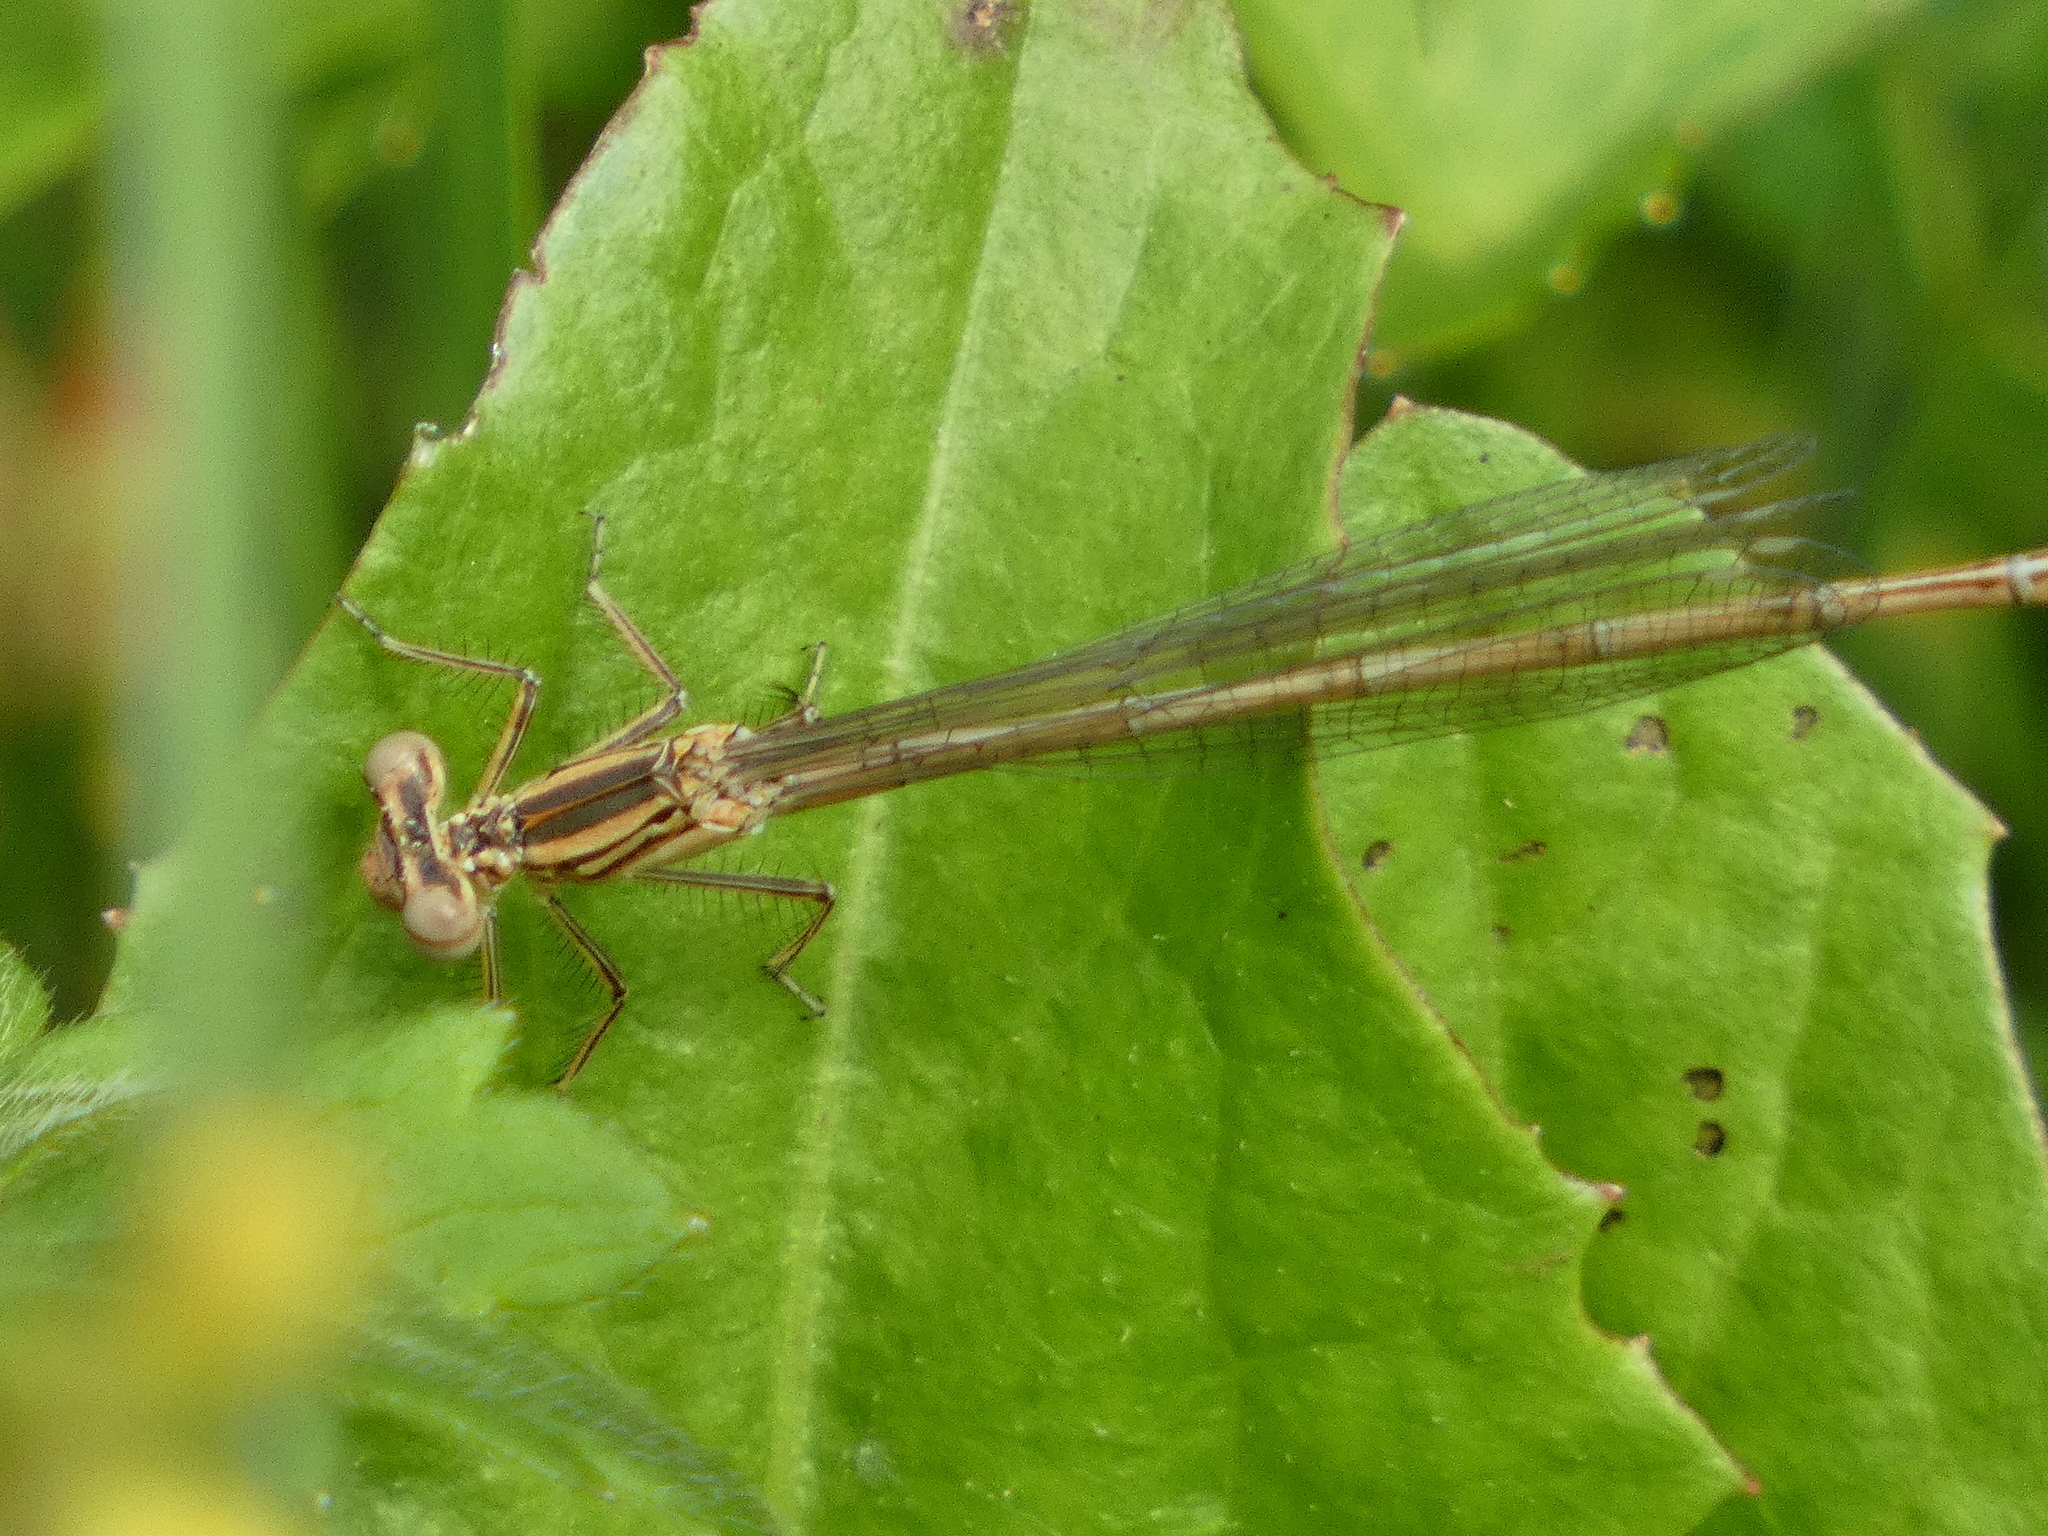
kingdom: Animalia
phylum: Arthropoda
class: Insecta
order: Odonata
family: Platycnemididae
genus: Platycnemis
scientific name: Platycnemis pennipes
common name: White-legged damselfly
